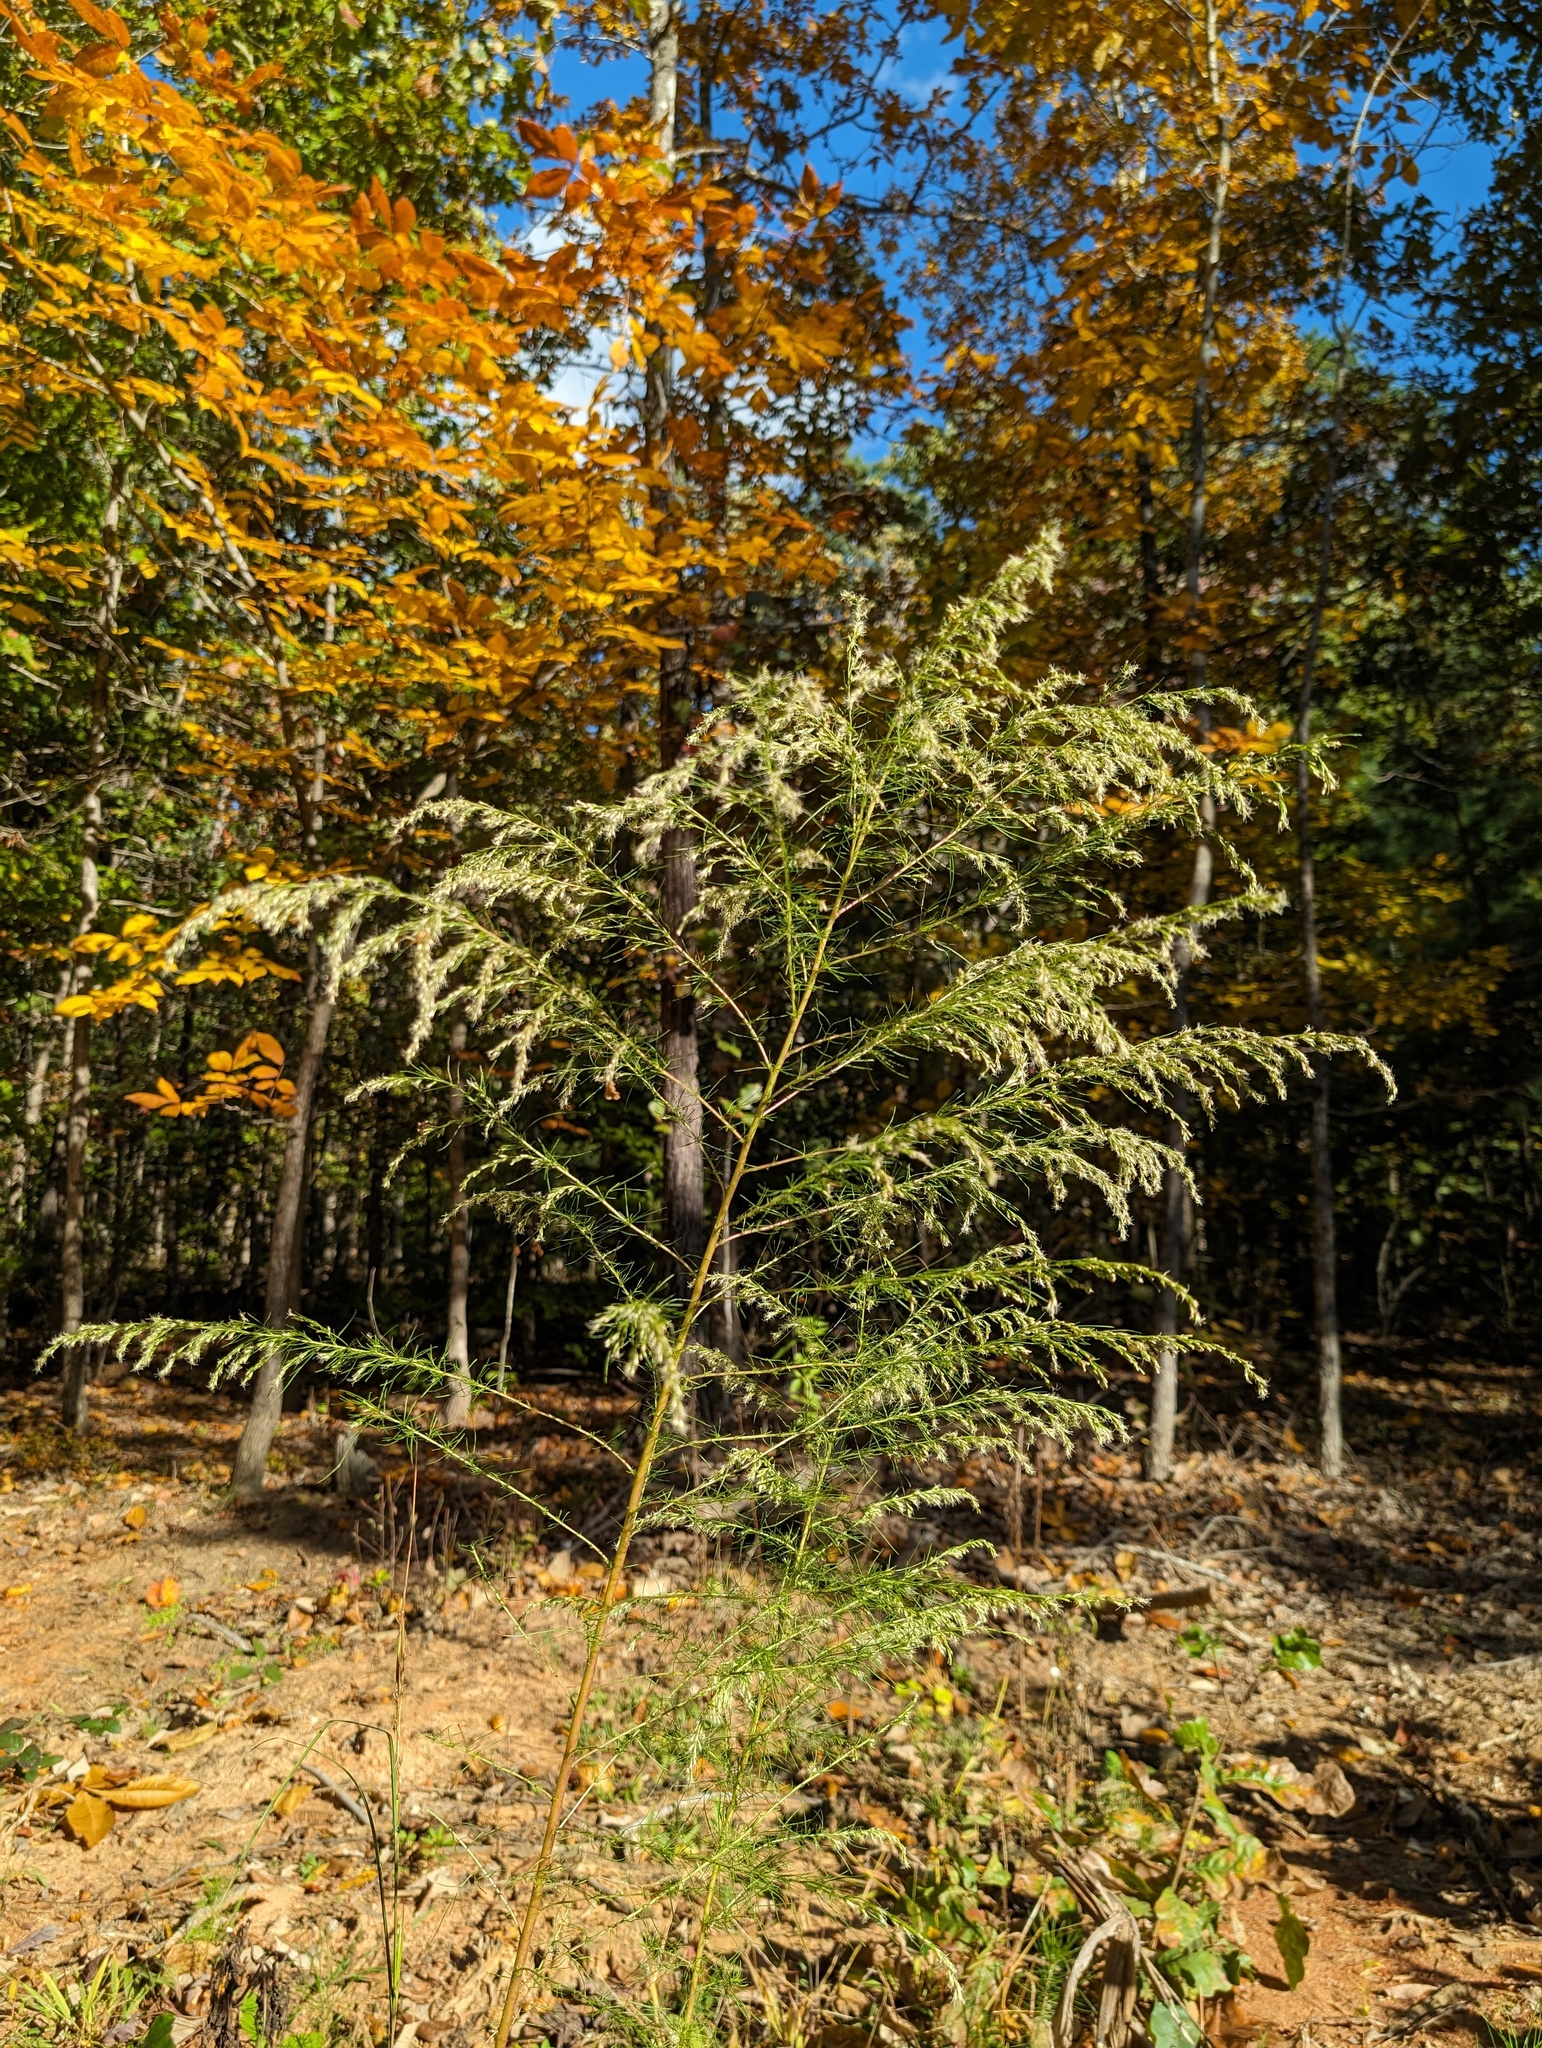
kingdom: Plantae
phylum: Tracheophyta
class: Magnoliopsida
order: Asterales
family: Asteraceae
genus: Eupatorium
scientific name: Eupatorium capillifolium
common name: Dog-fennel
